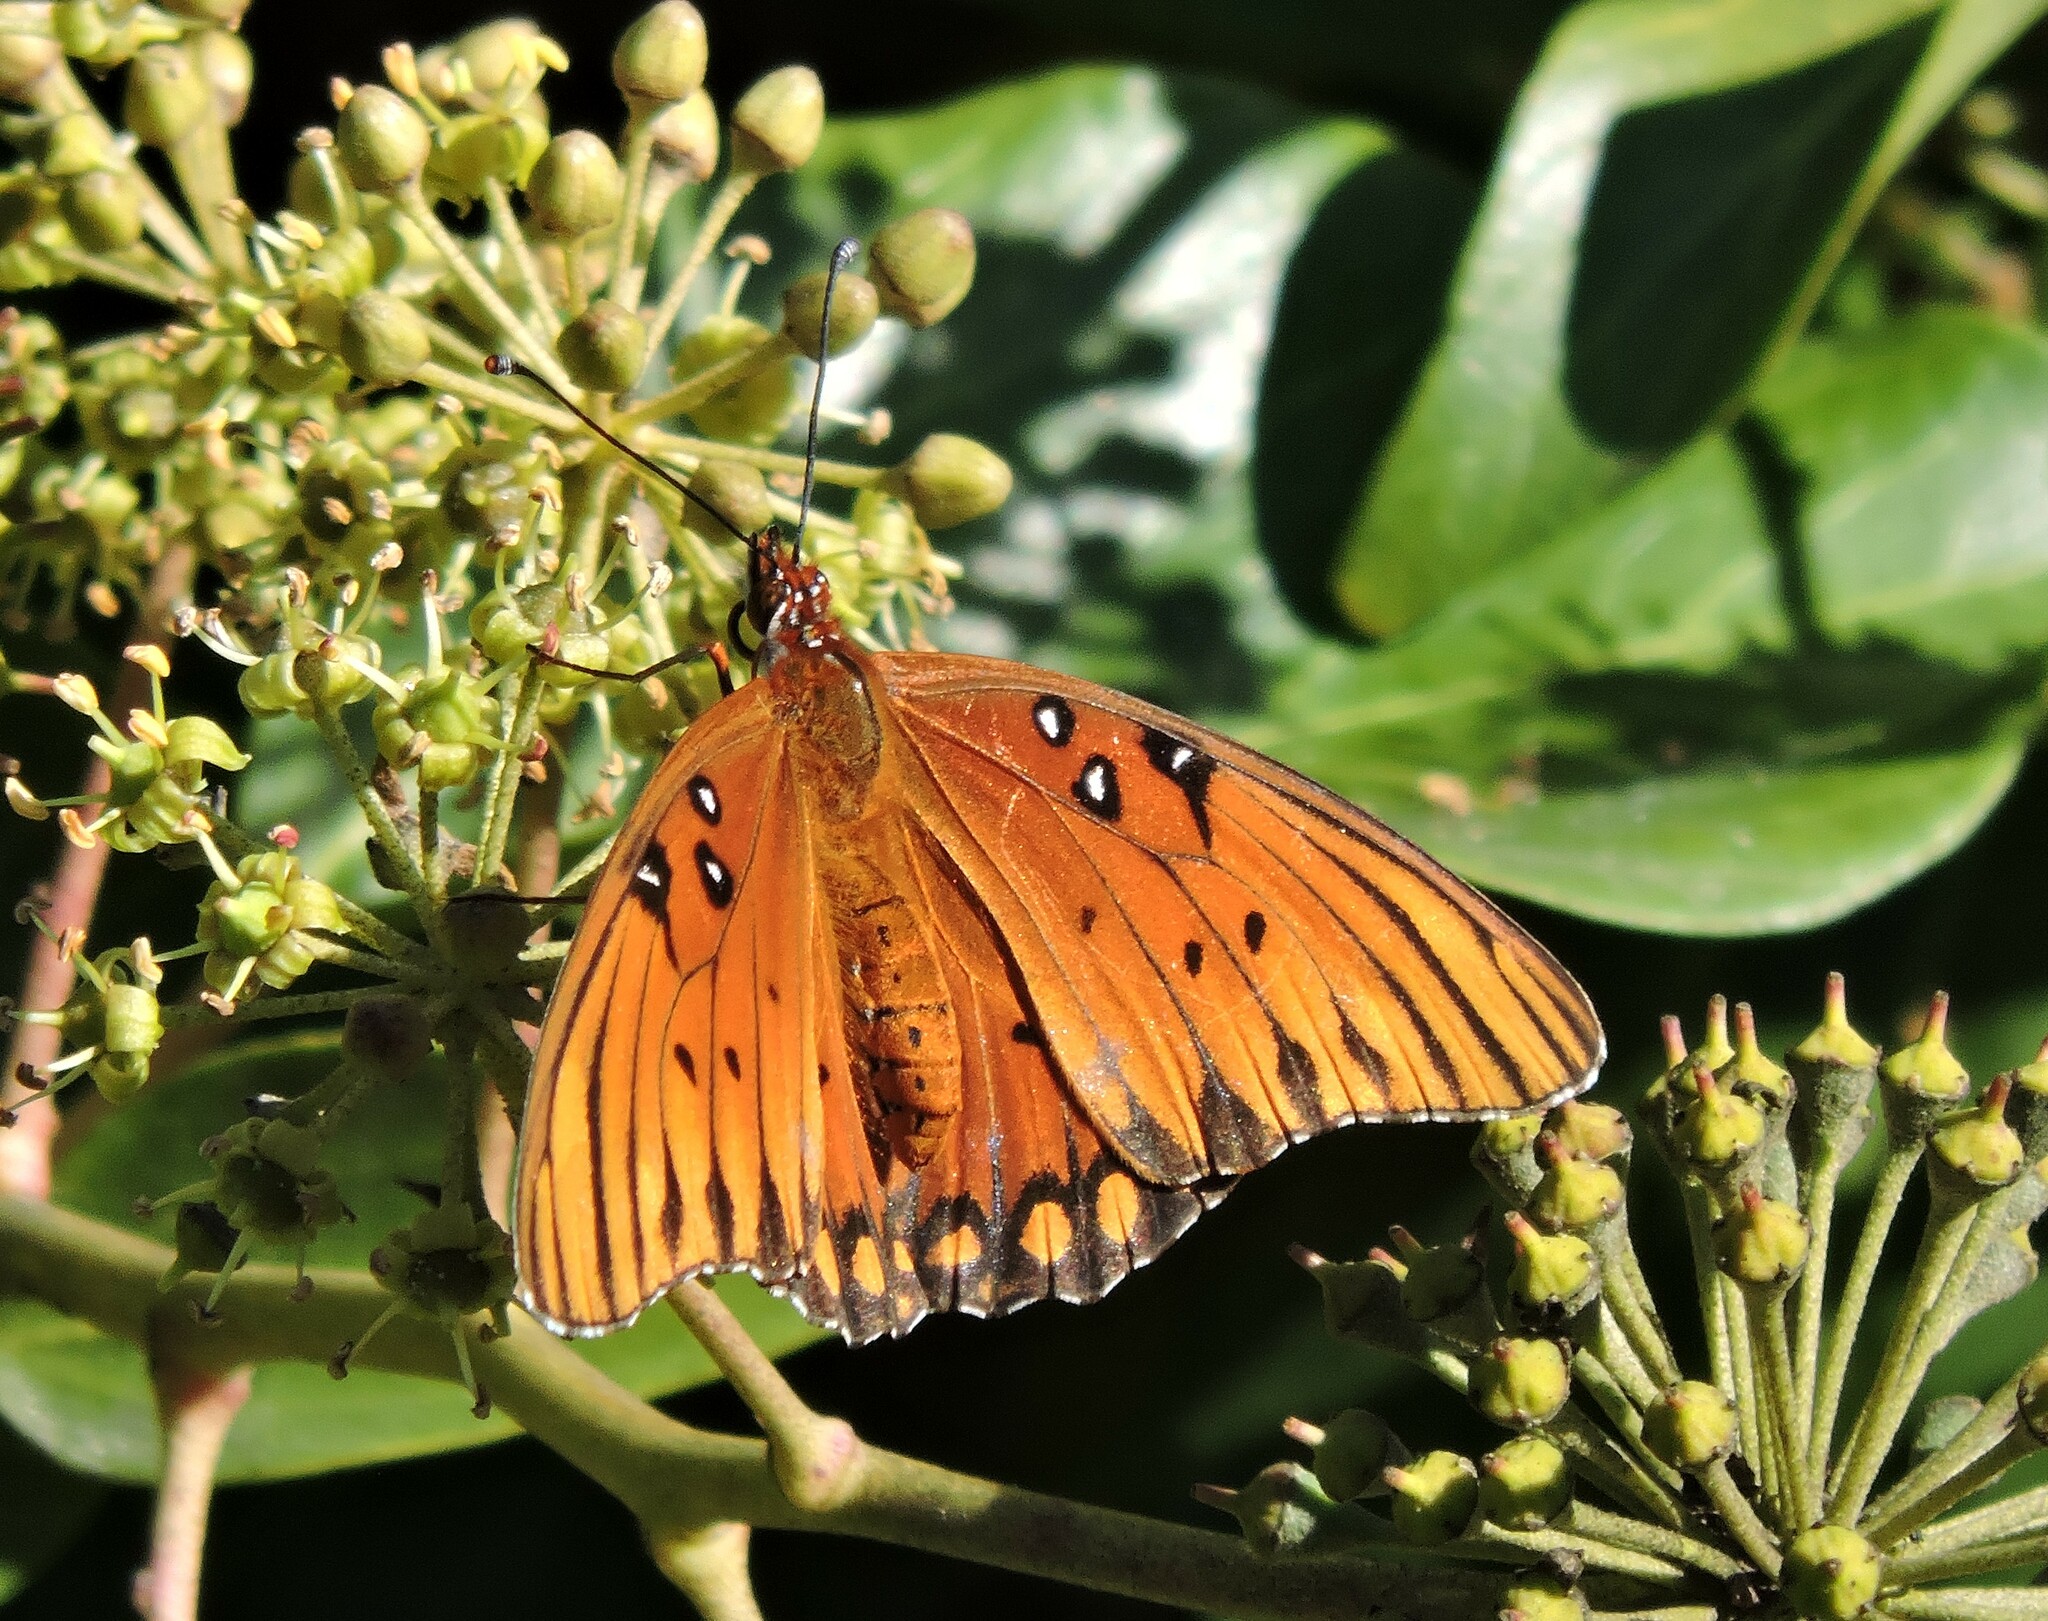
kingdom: Animalia
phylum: Arthropoda
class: Insecta
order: Lepidoptera
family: Nymphalidae
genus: Dione
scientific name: Dione vanillae
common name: Gulf fritillary
